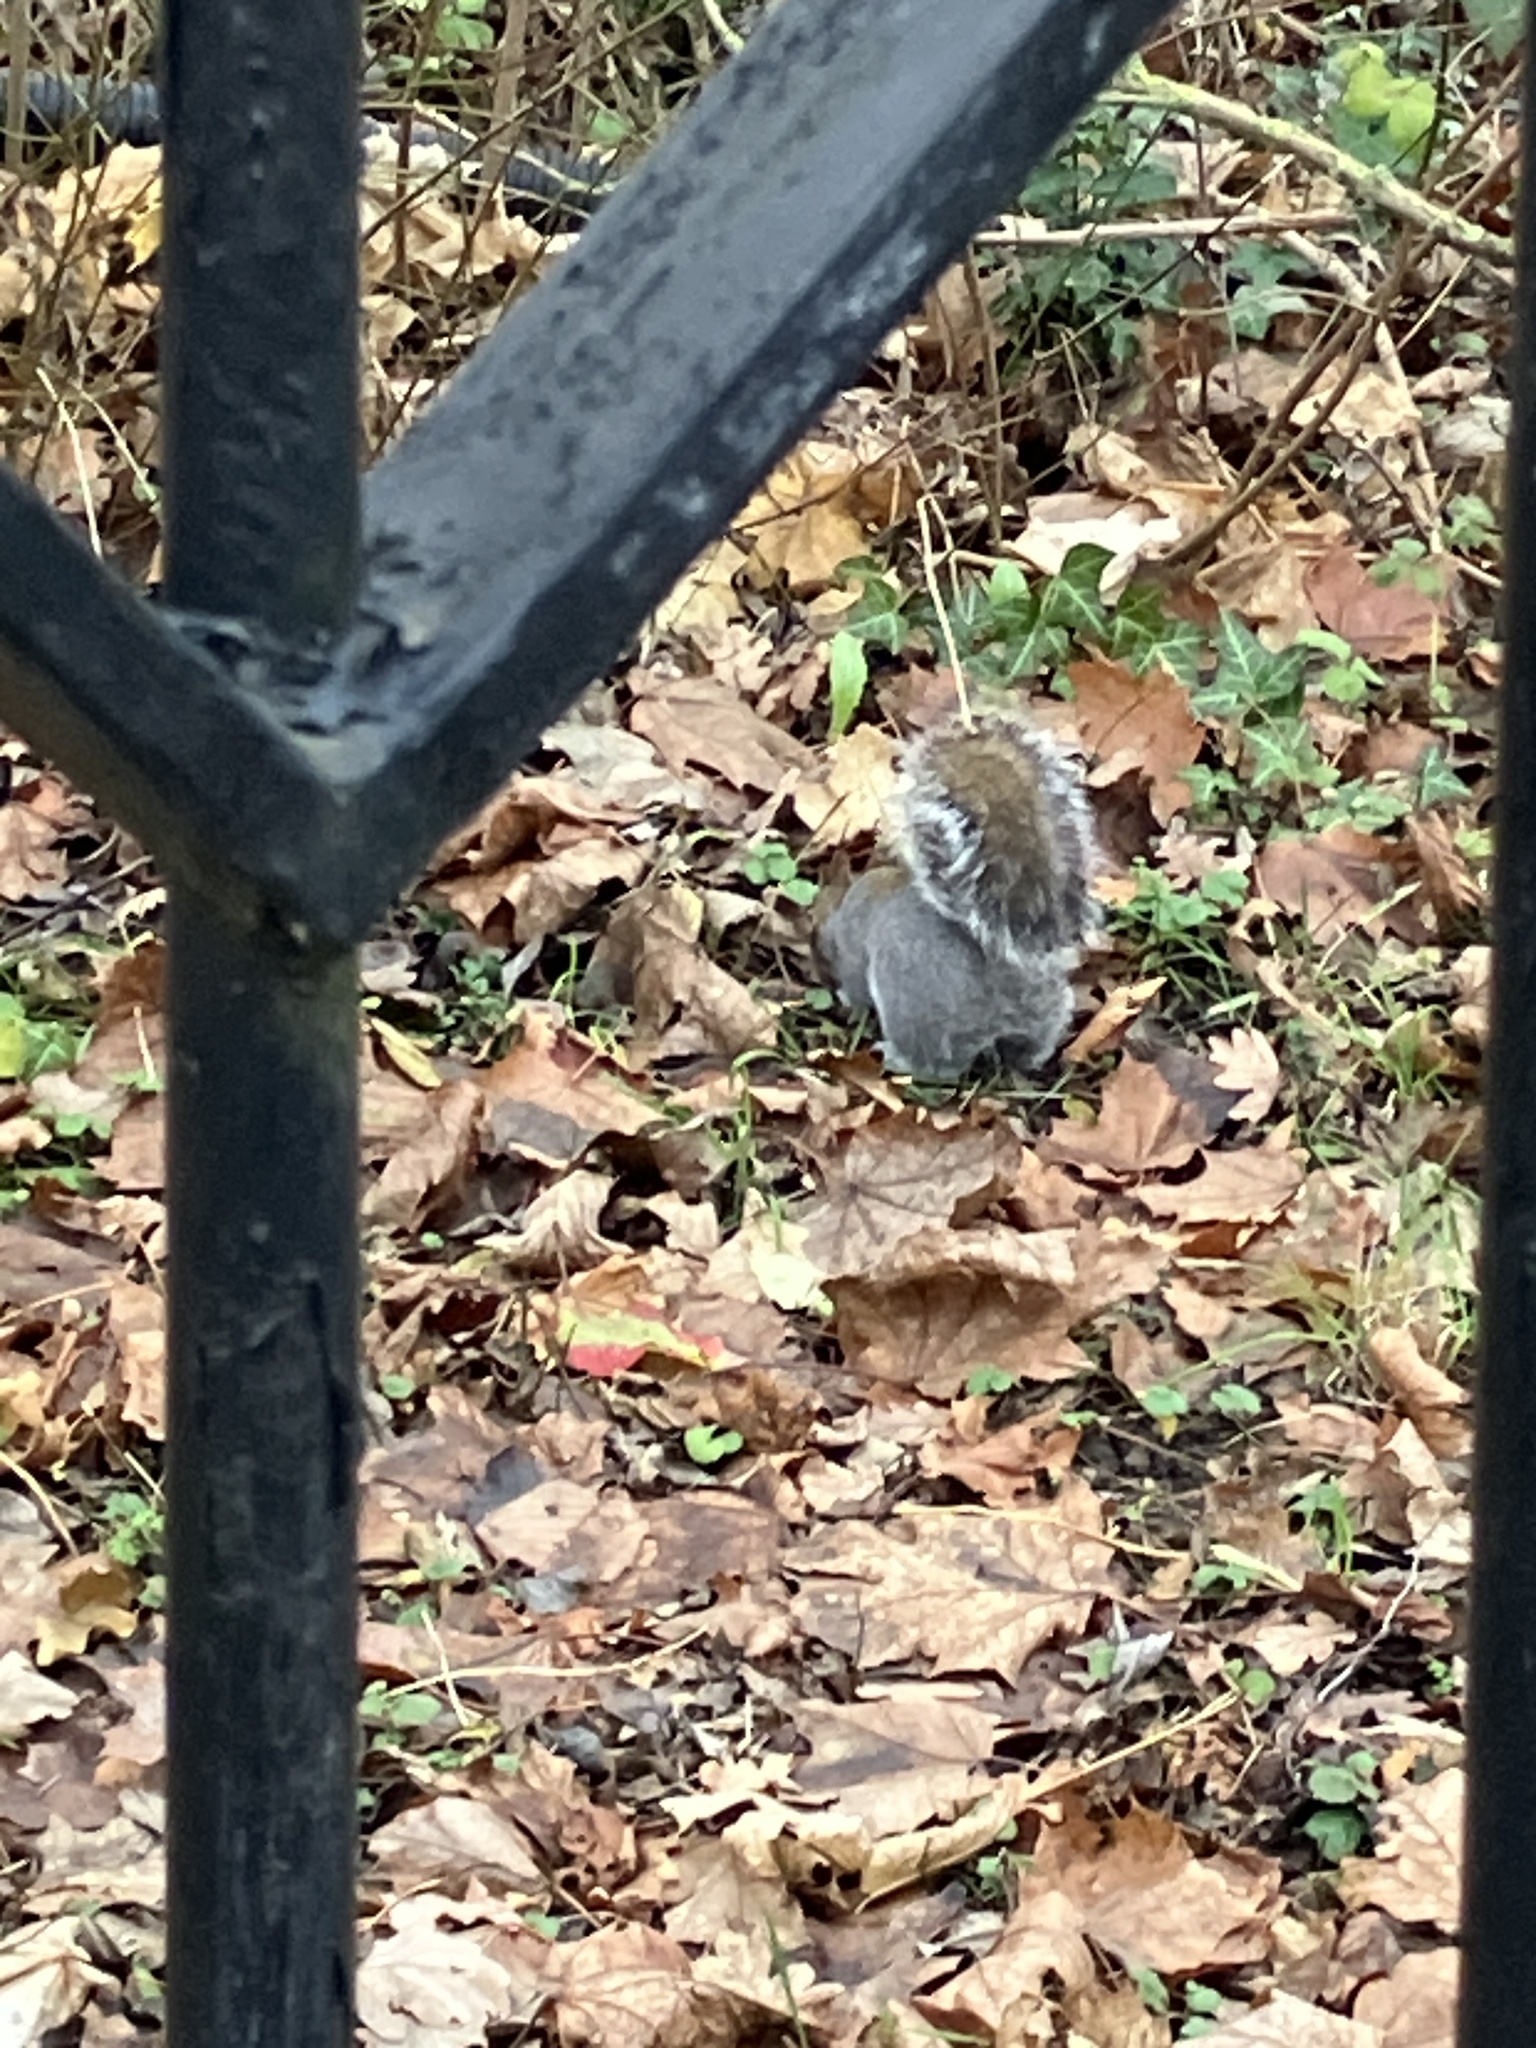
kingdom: Animalia
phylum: Chordata
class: Mammalia
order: Rodentia
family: Sciuridae
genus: Sciurus
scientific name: Sciurus carolinensis
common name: Eastern gray squirrel
